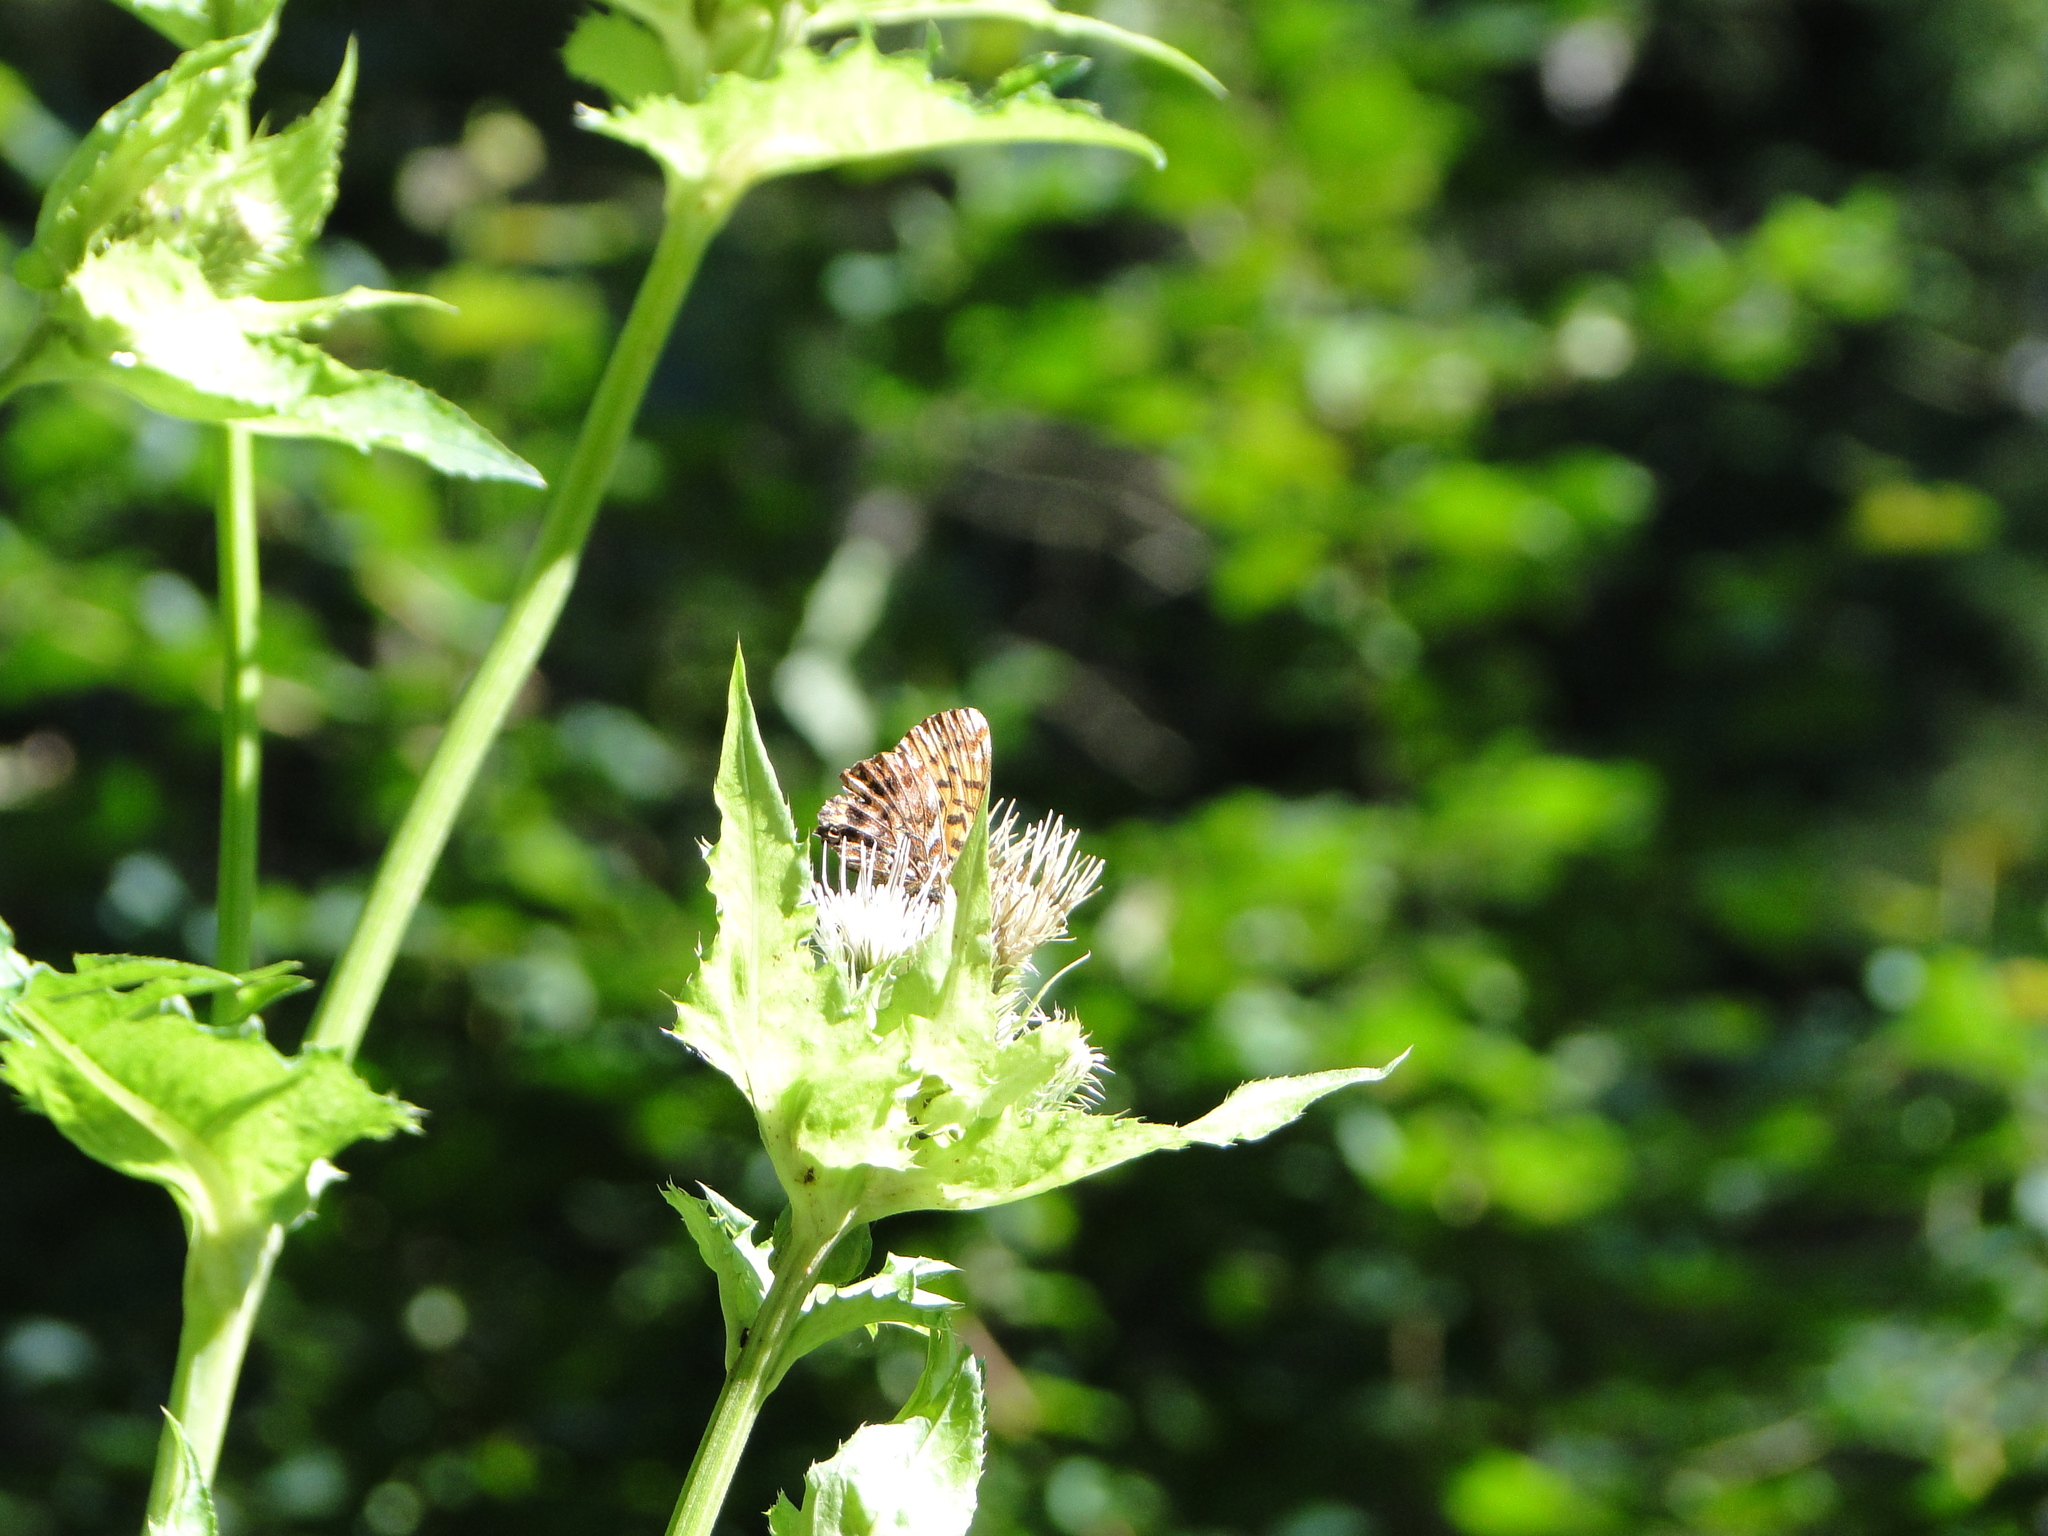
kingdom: Animalia
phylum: Arthropoda
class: Insecta
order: Lepidoptera
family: Nymphalidae
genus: Boloria
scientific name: Boloria titania
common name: Titania's fritillary
